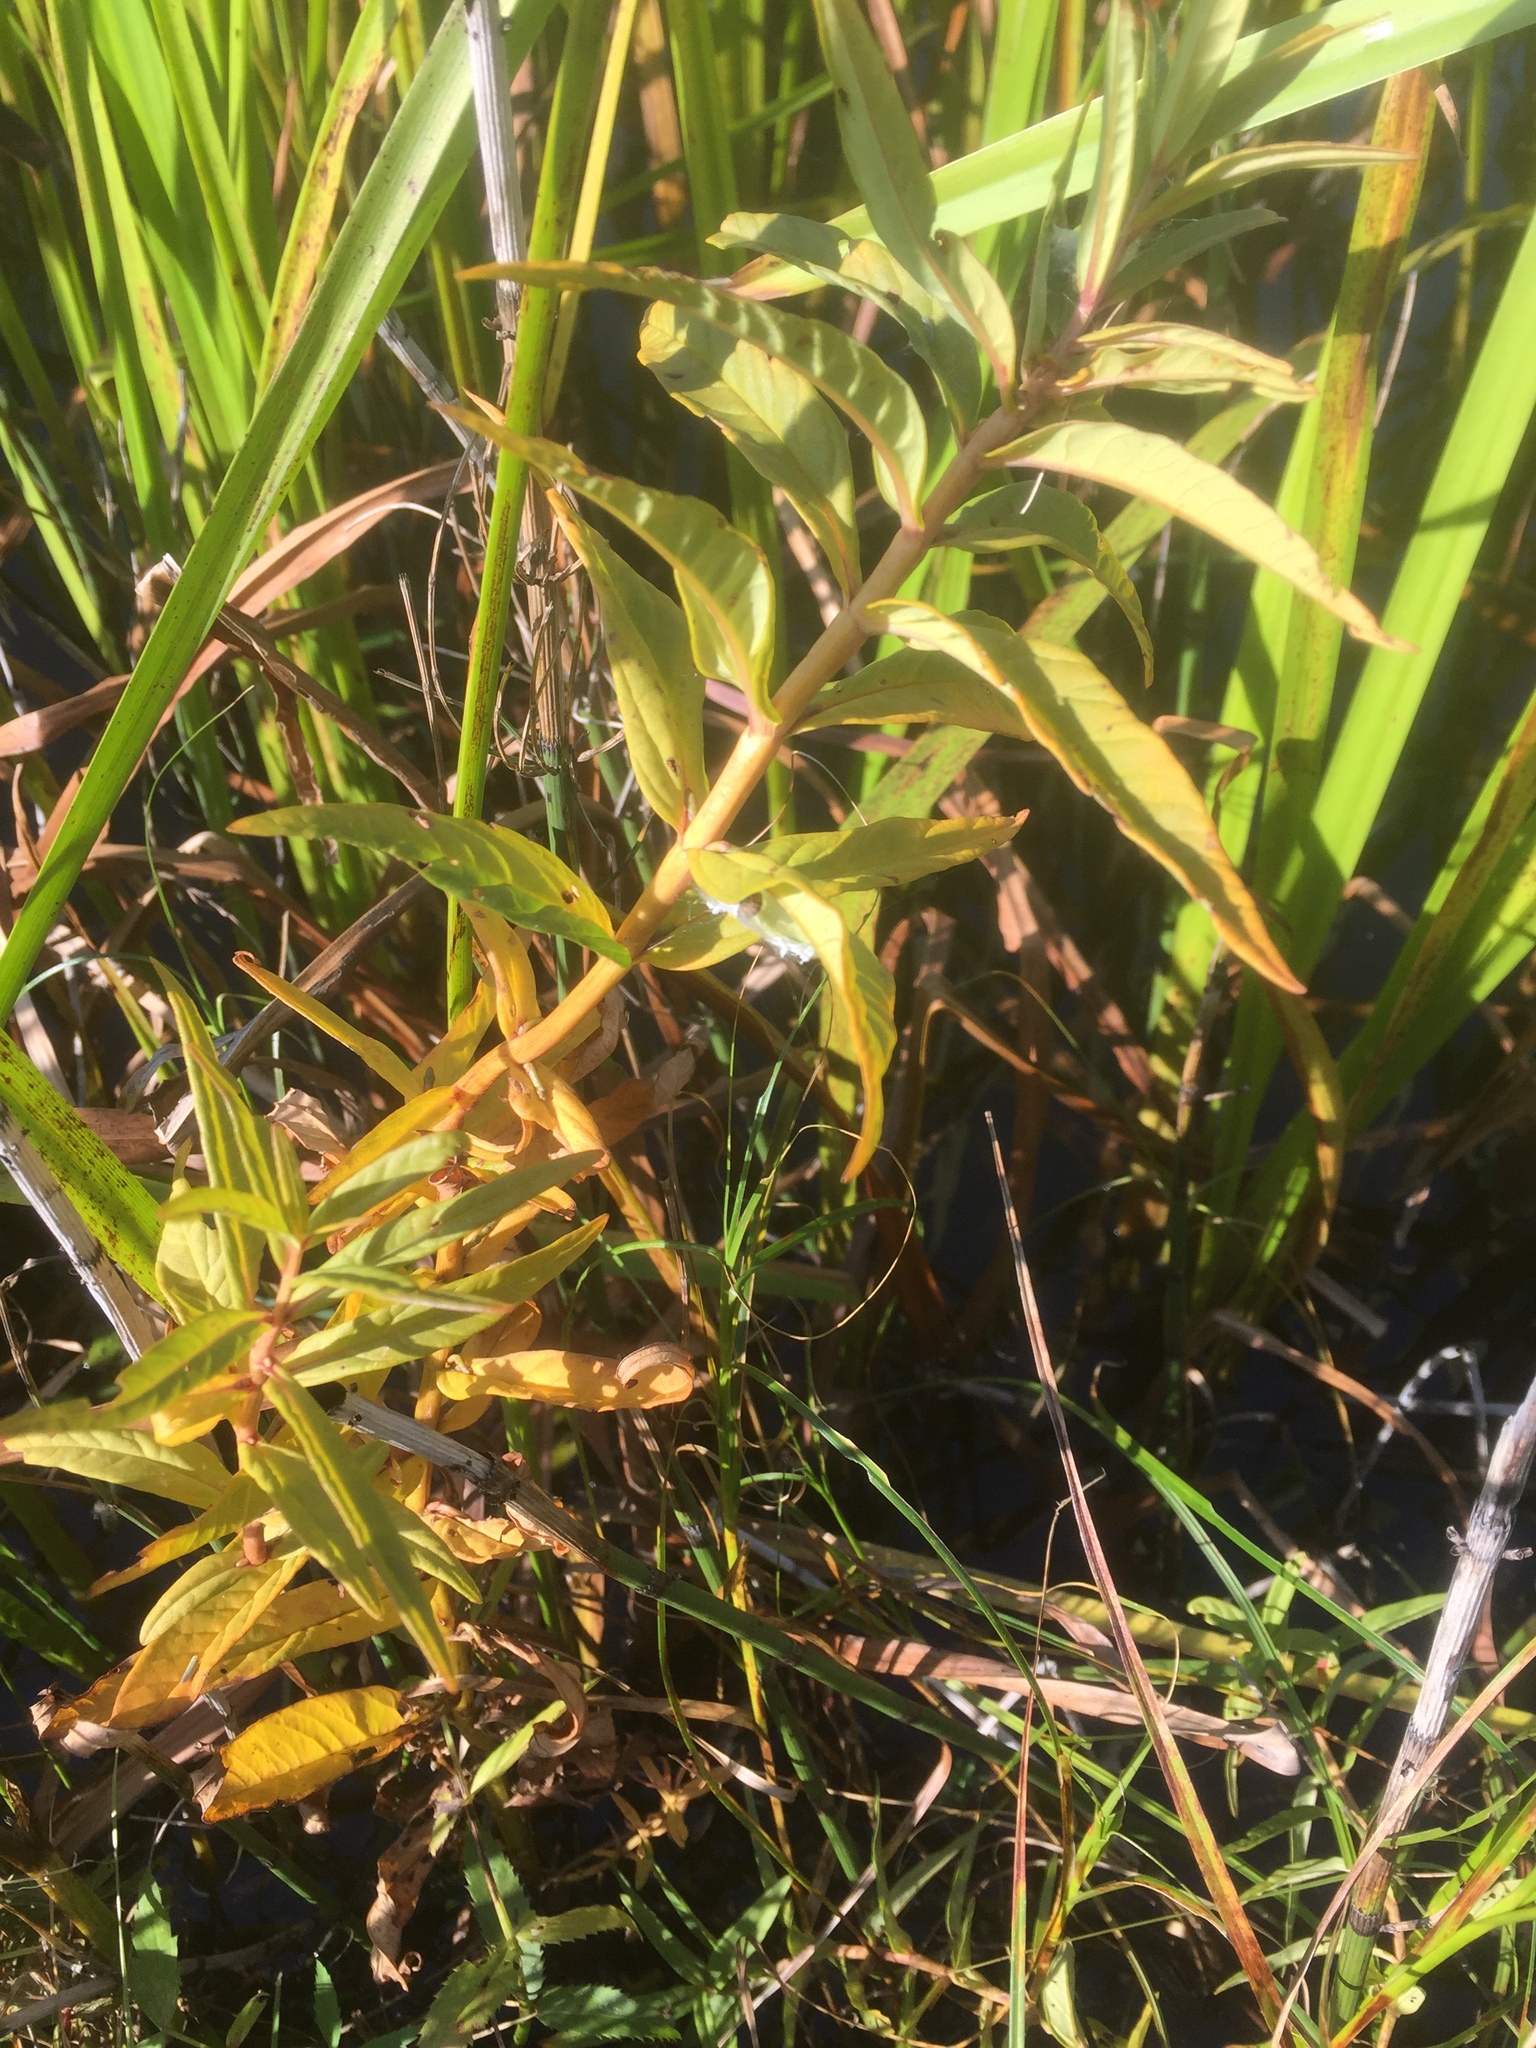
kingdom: Plantae
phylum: Tracheophyta
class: Magnoliopsida
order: Ericales
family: Primulaceae
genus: Lysimachia
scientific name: Lysimachia thyrsiflora
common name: Tufted loosestrife
